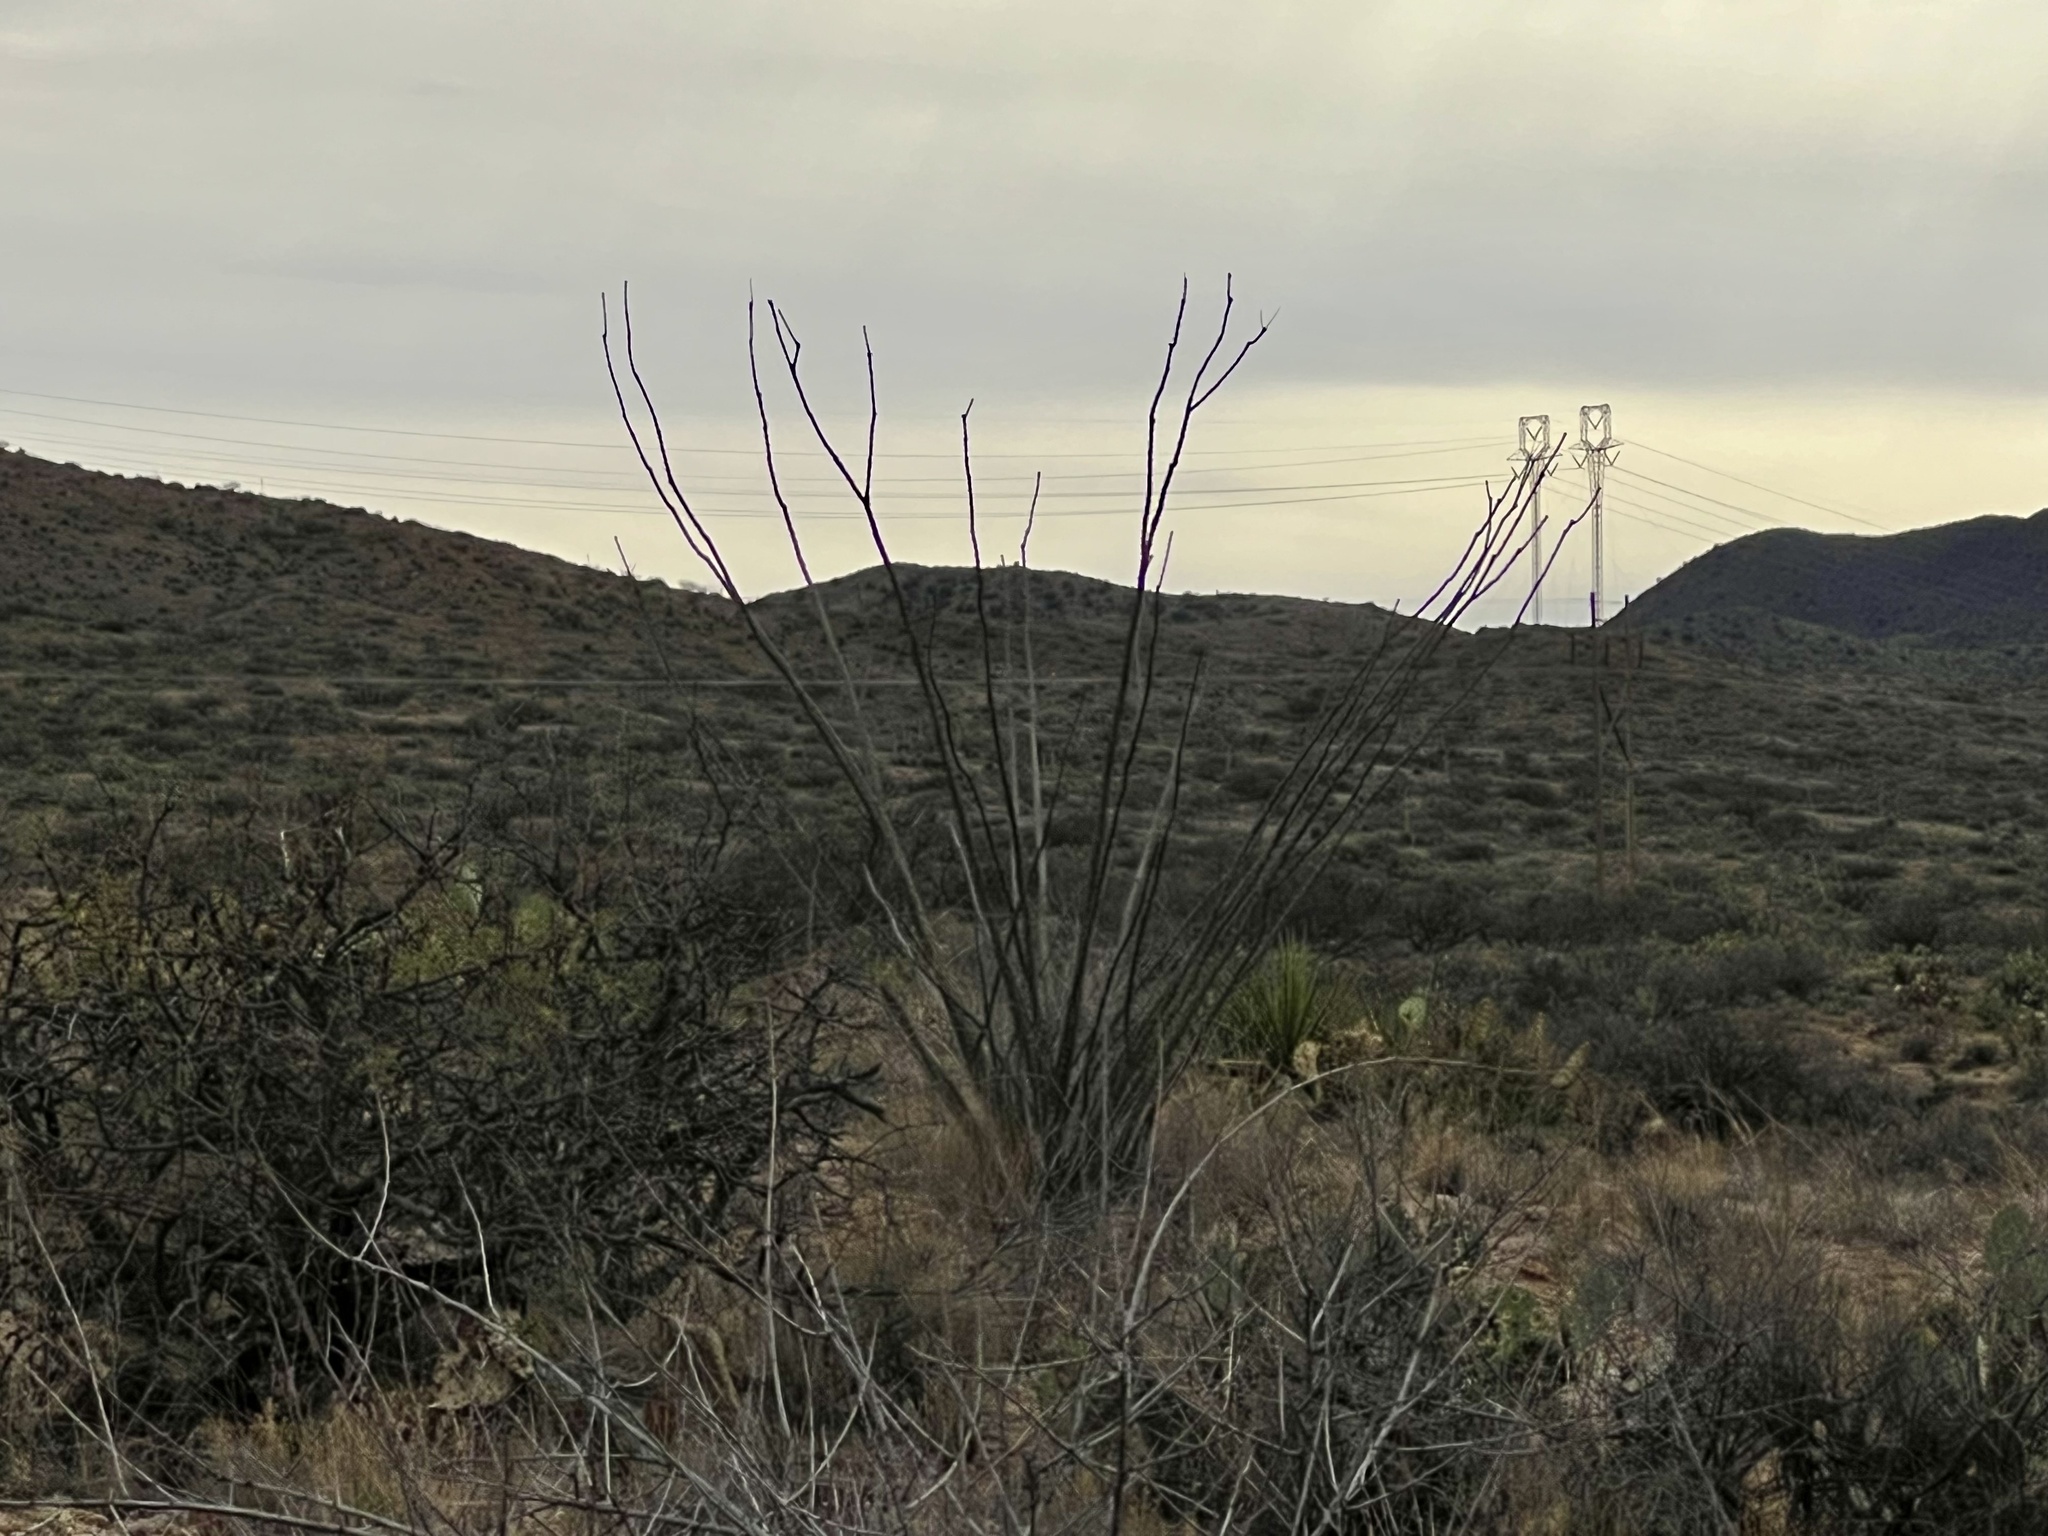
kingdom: Plantae
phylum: Tracheophyta
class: Magnoliopsida
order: Ericales
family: Fouquieriaceae
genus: Fouquieria
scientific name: Fouquieria splendens
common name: Vine-cactus
